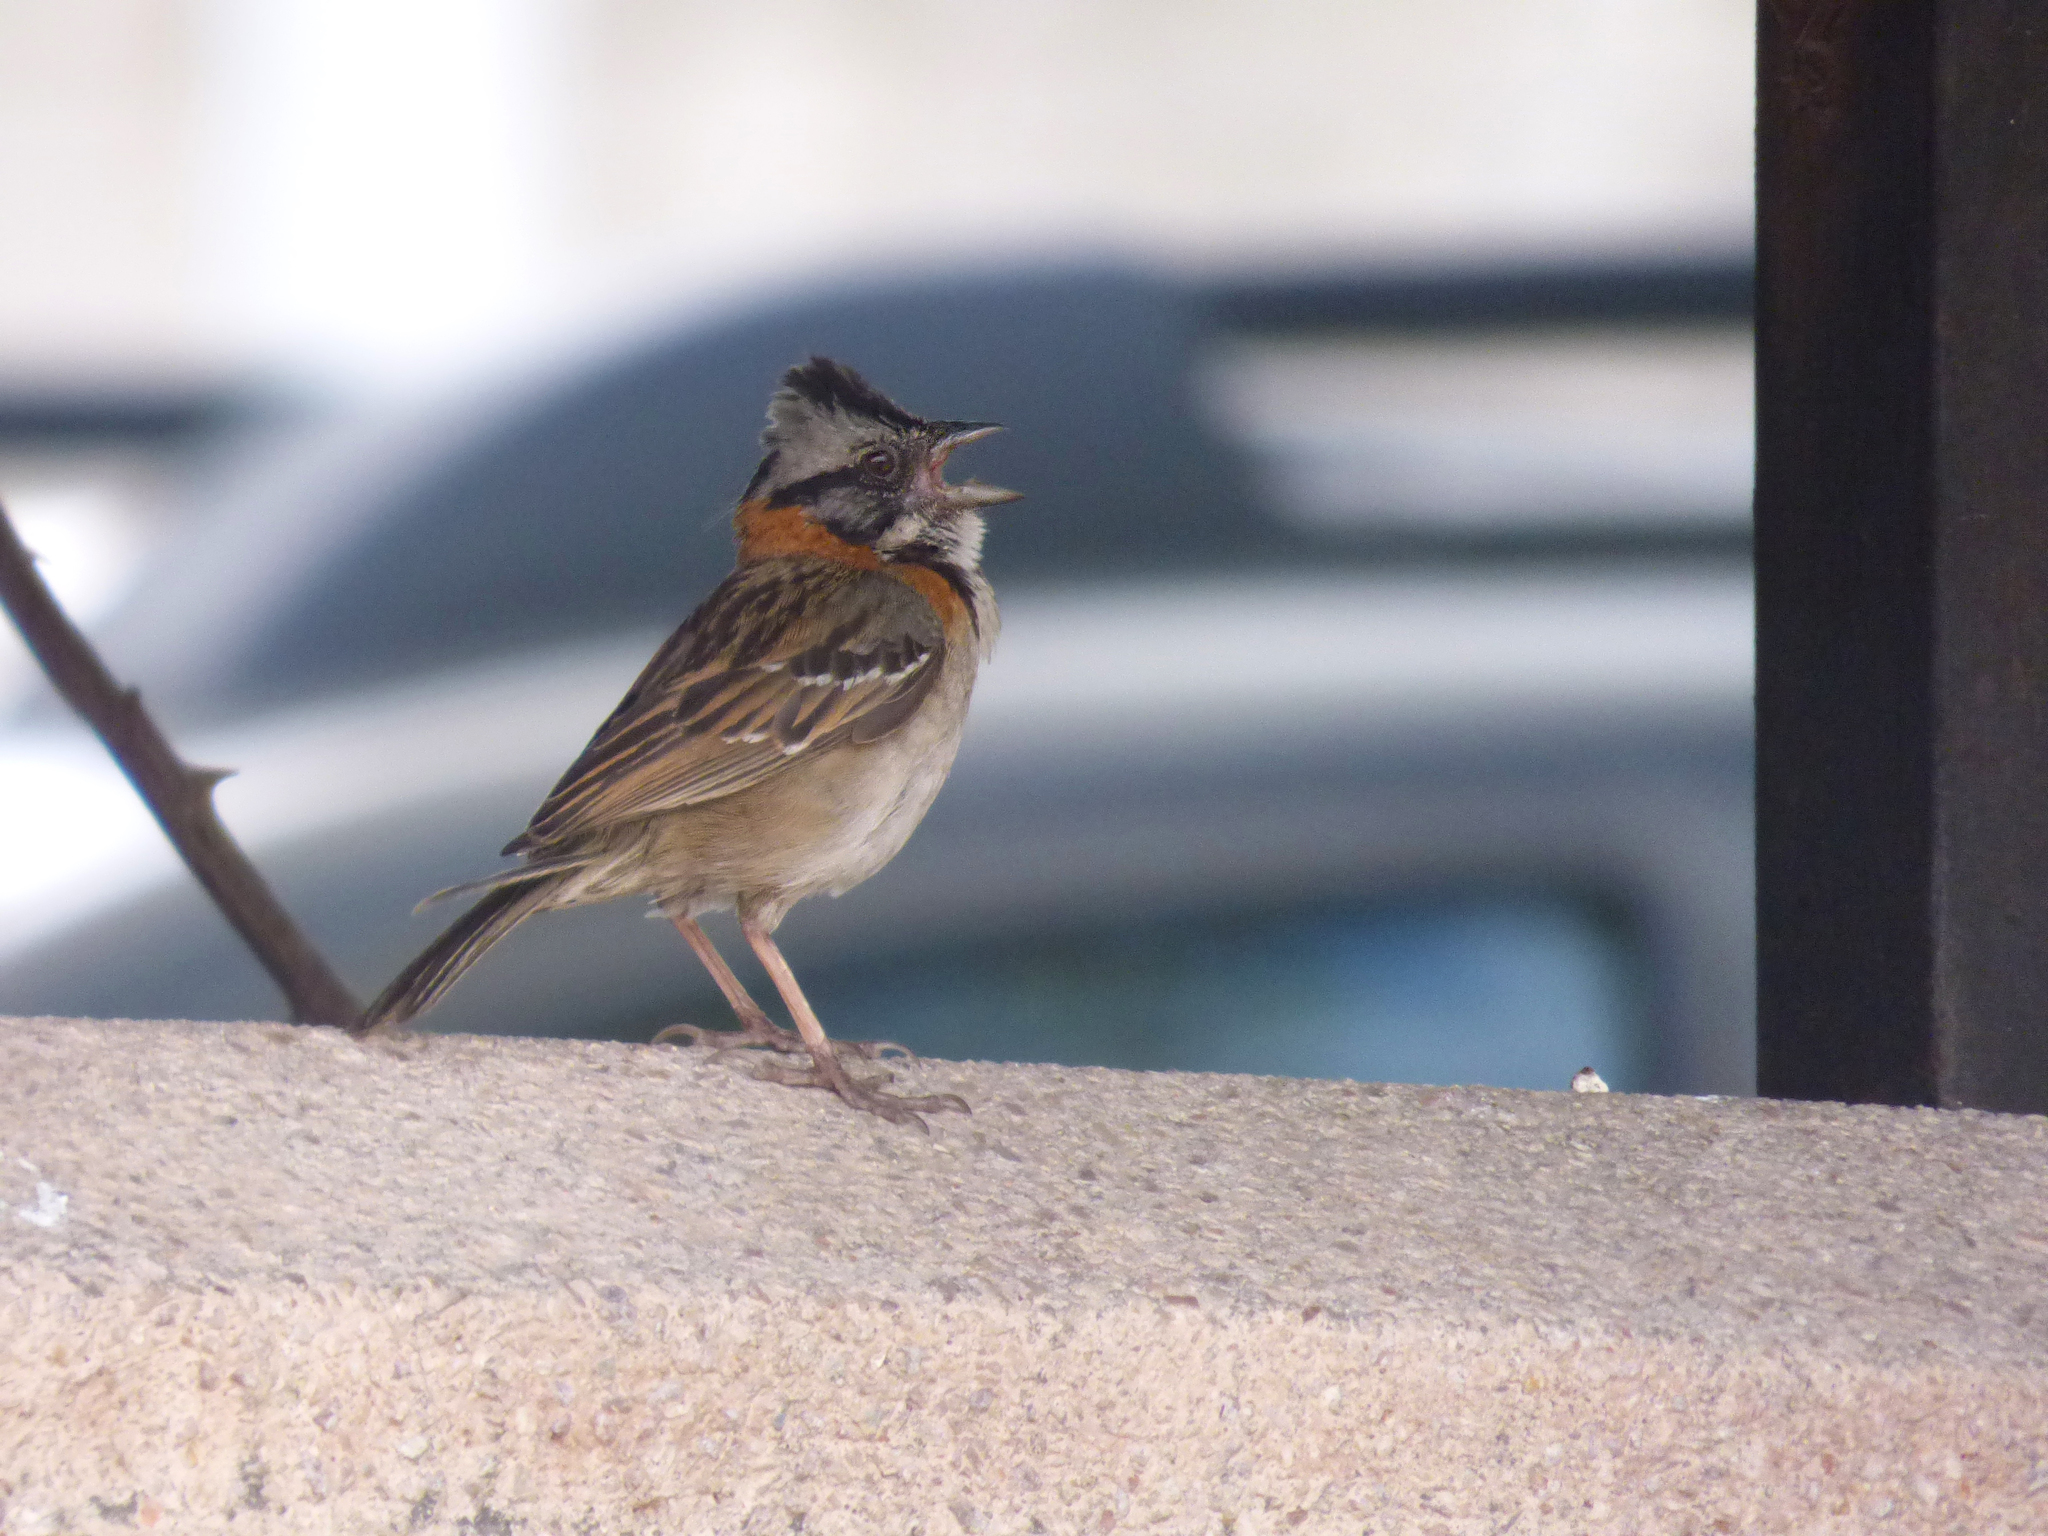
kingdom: Animalia
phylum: Chordata
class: Aves
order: Passeriformes
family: Passerellidae
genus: Zonotrichia
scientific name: Zonotrichia capensis
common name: Rufous-collared sparrow
